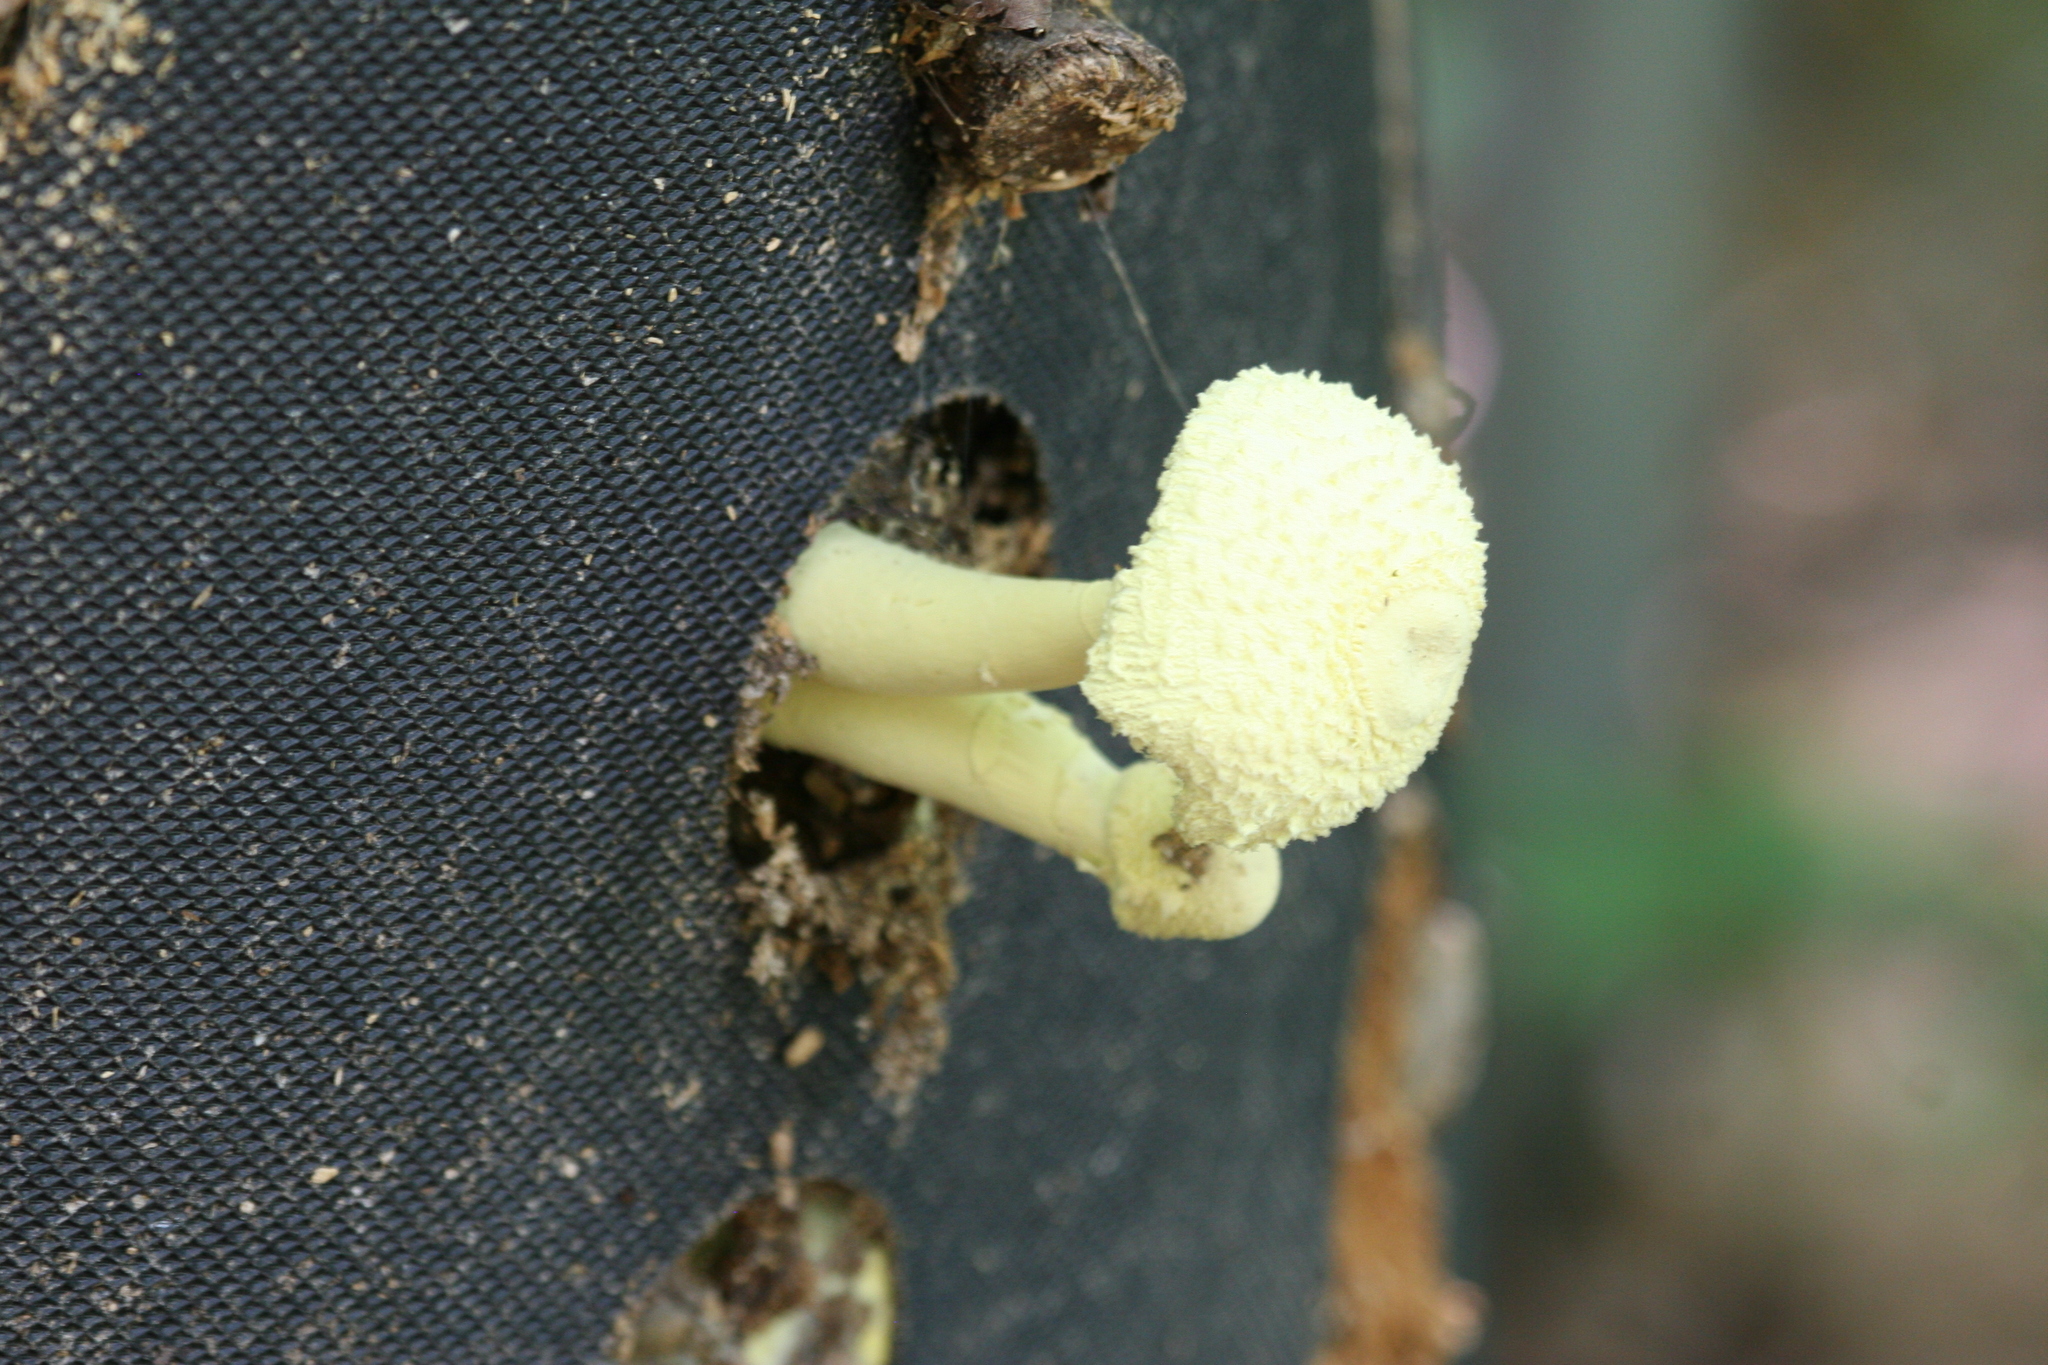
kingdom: Fungi
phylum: Basidiomycota
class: Agaricomycetes
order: Agaricales
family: Agaricaceae
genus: Leucocoprinus
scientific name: Leucocoprinus birnbaumii
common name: Plantpot dapperling
